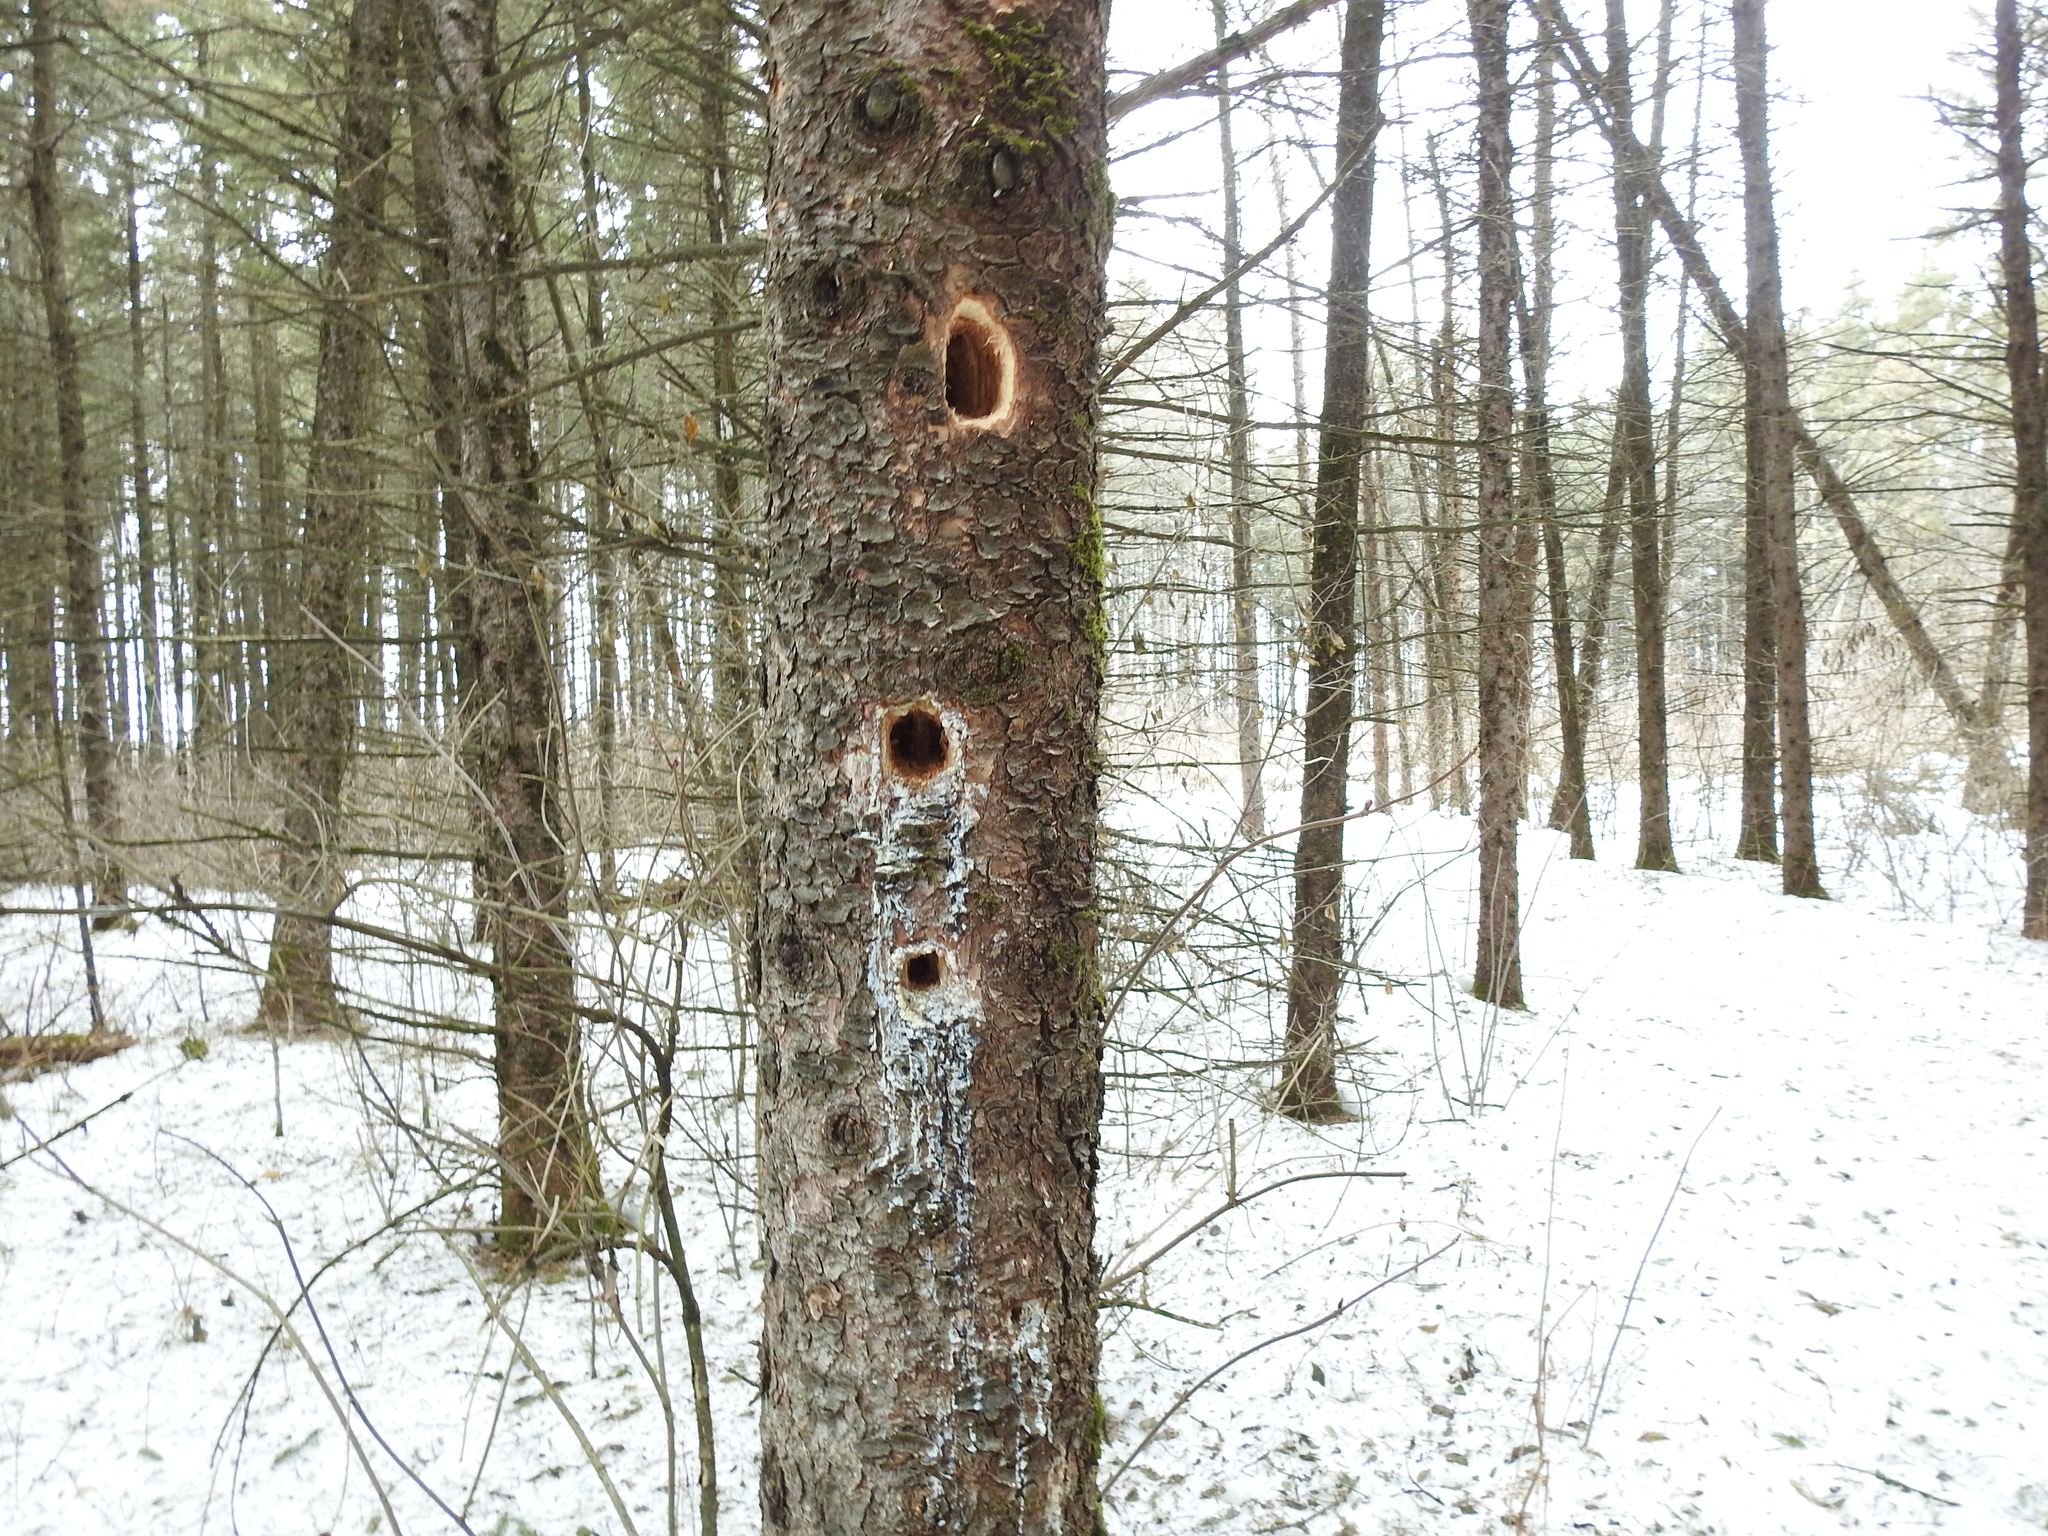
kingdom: Animalia
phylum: Chordata
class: Aves
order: Piciformes
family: Picidae
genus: Dryocopus
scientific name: Dryocopus pileatus
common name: Pileated woodpecker
